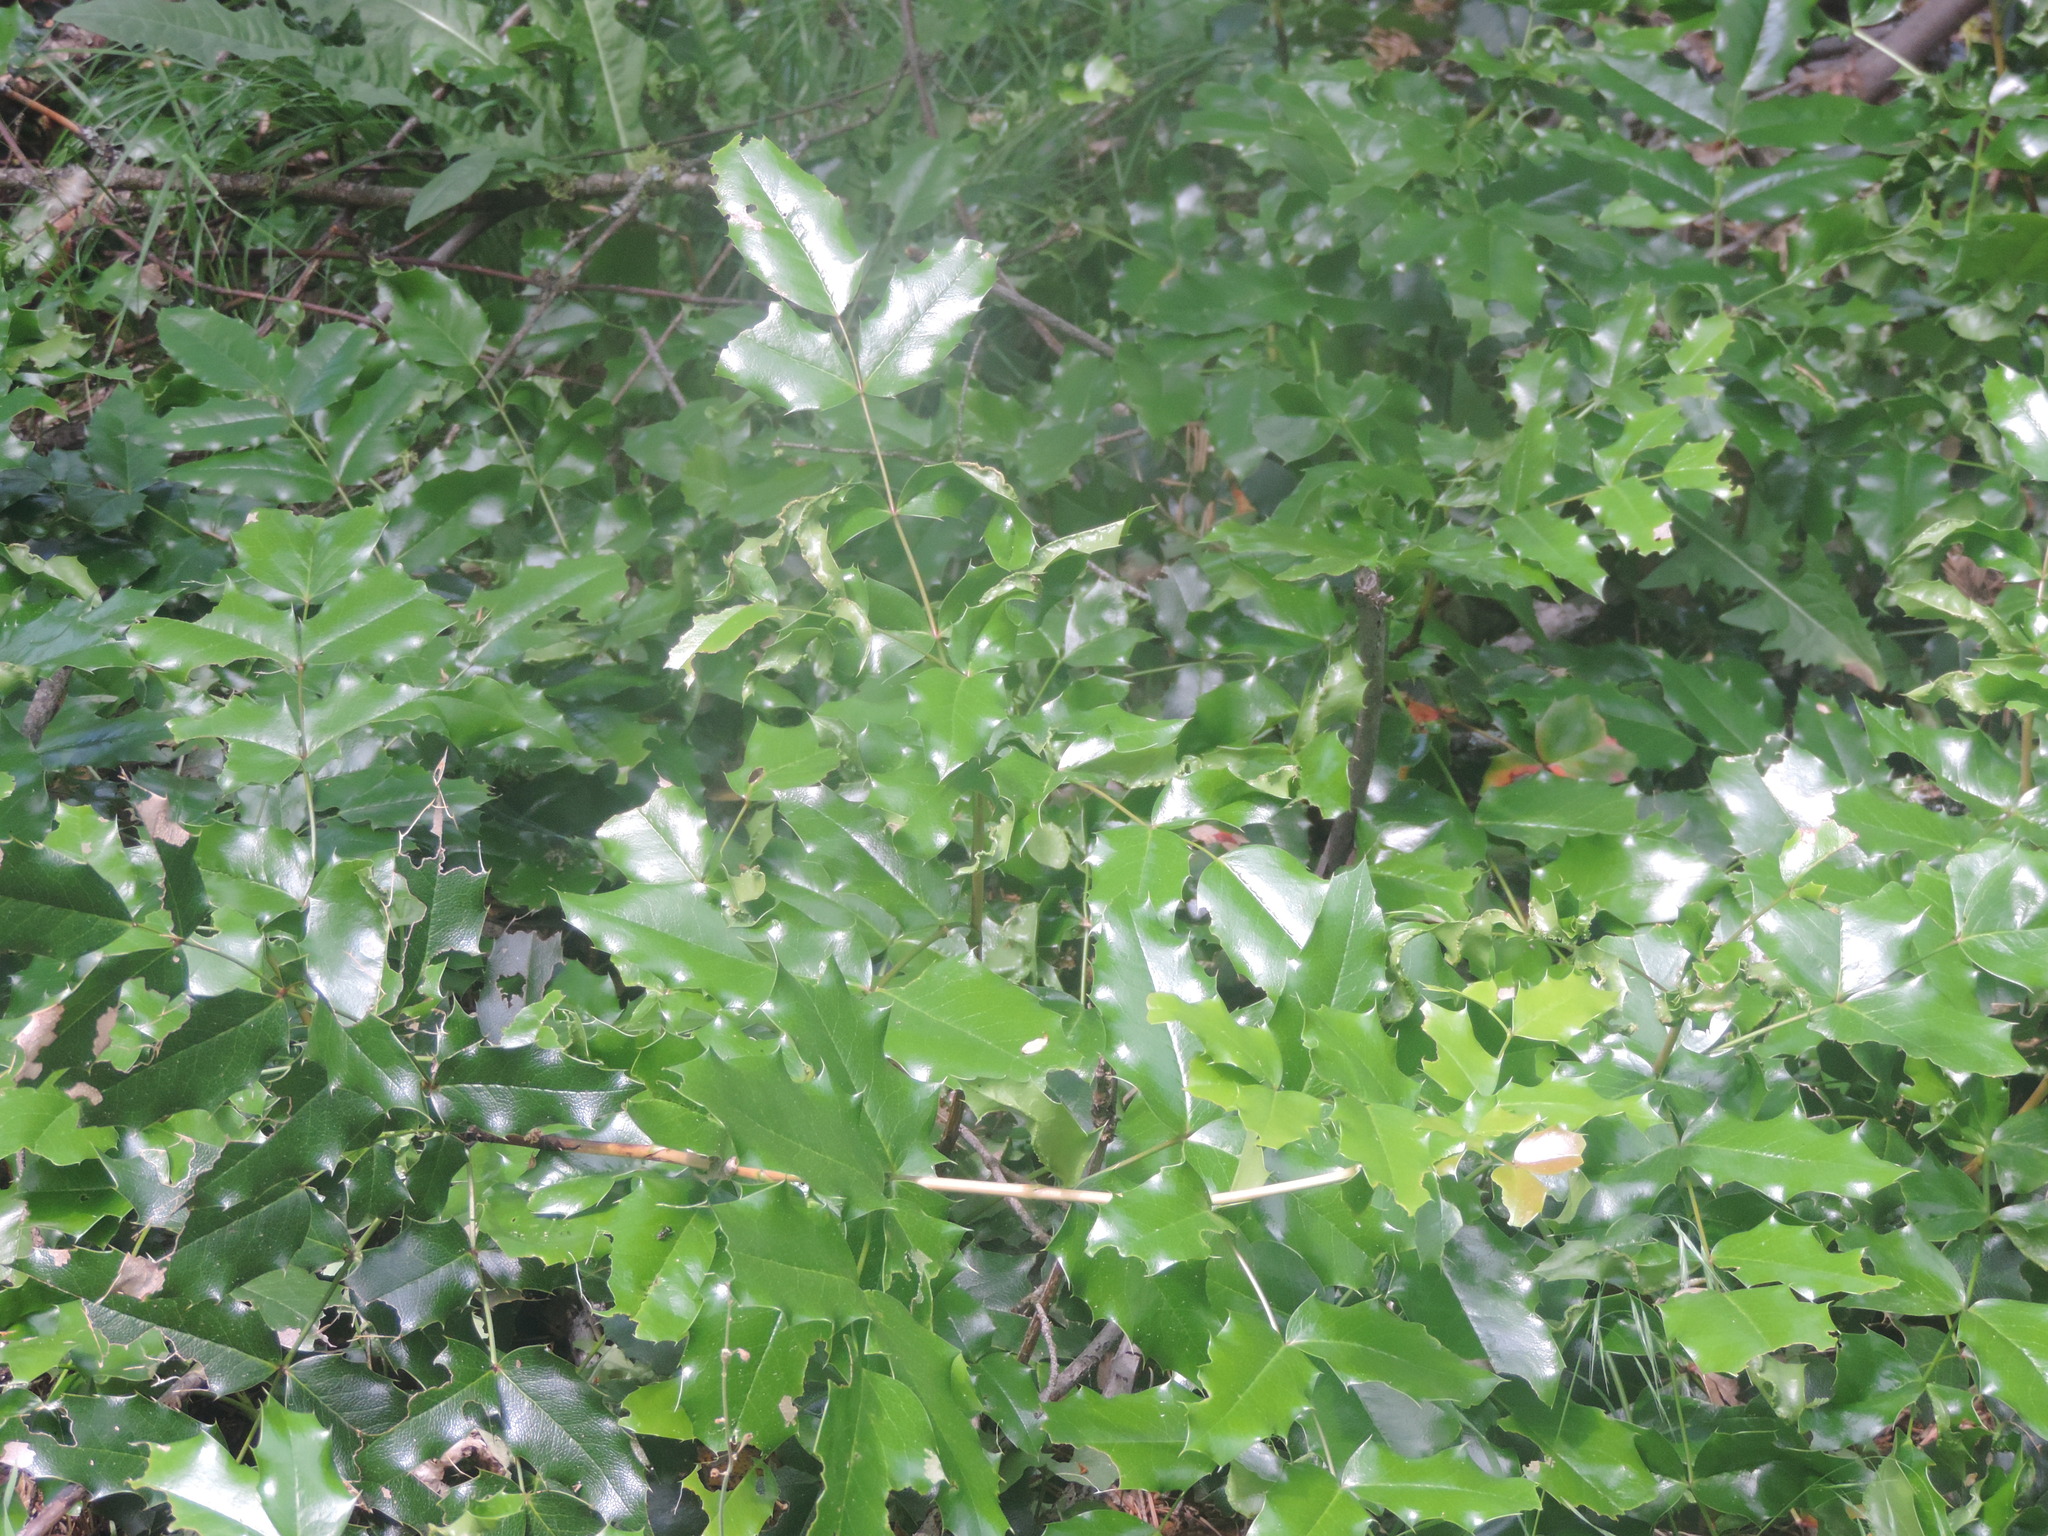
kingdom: Plantae
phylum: Tracheophyta
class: Magnoliopsida
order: Ranunculales
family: Berberidaceae
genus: Mahonia
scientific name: Mahonia aquifolium
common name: Oregon-grape
